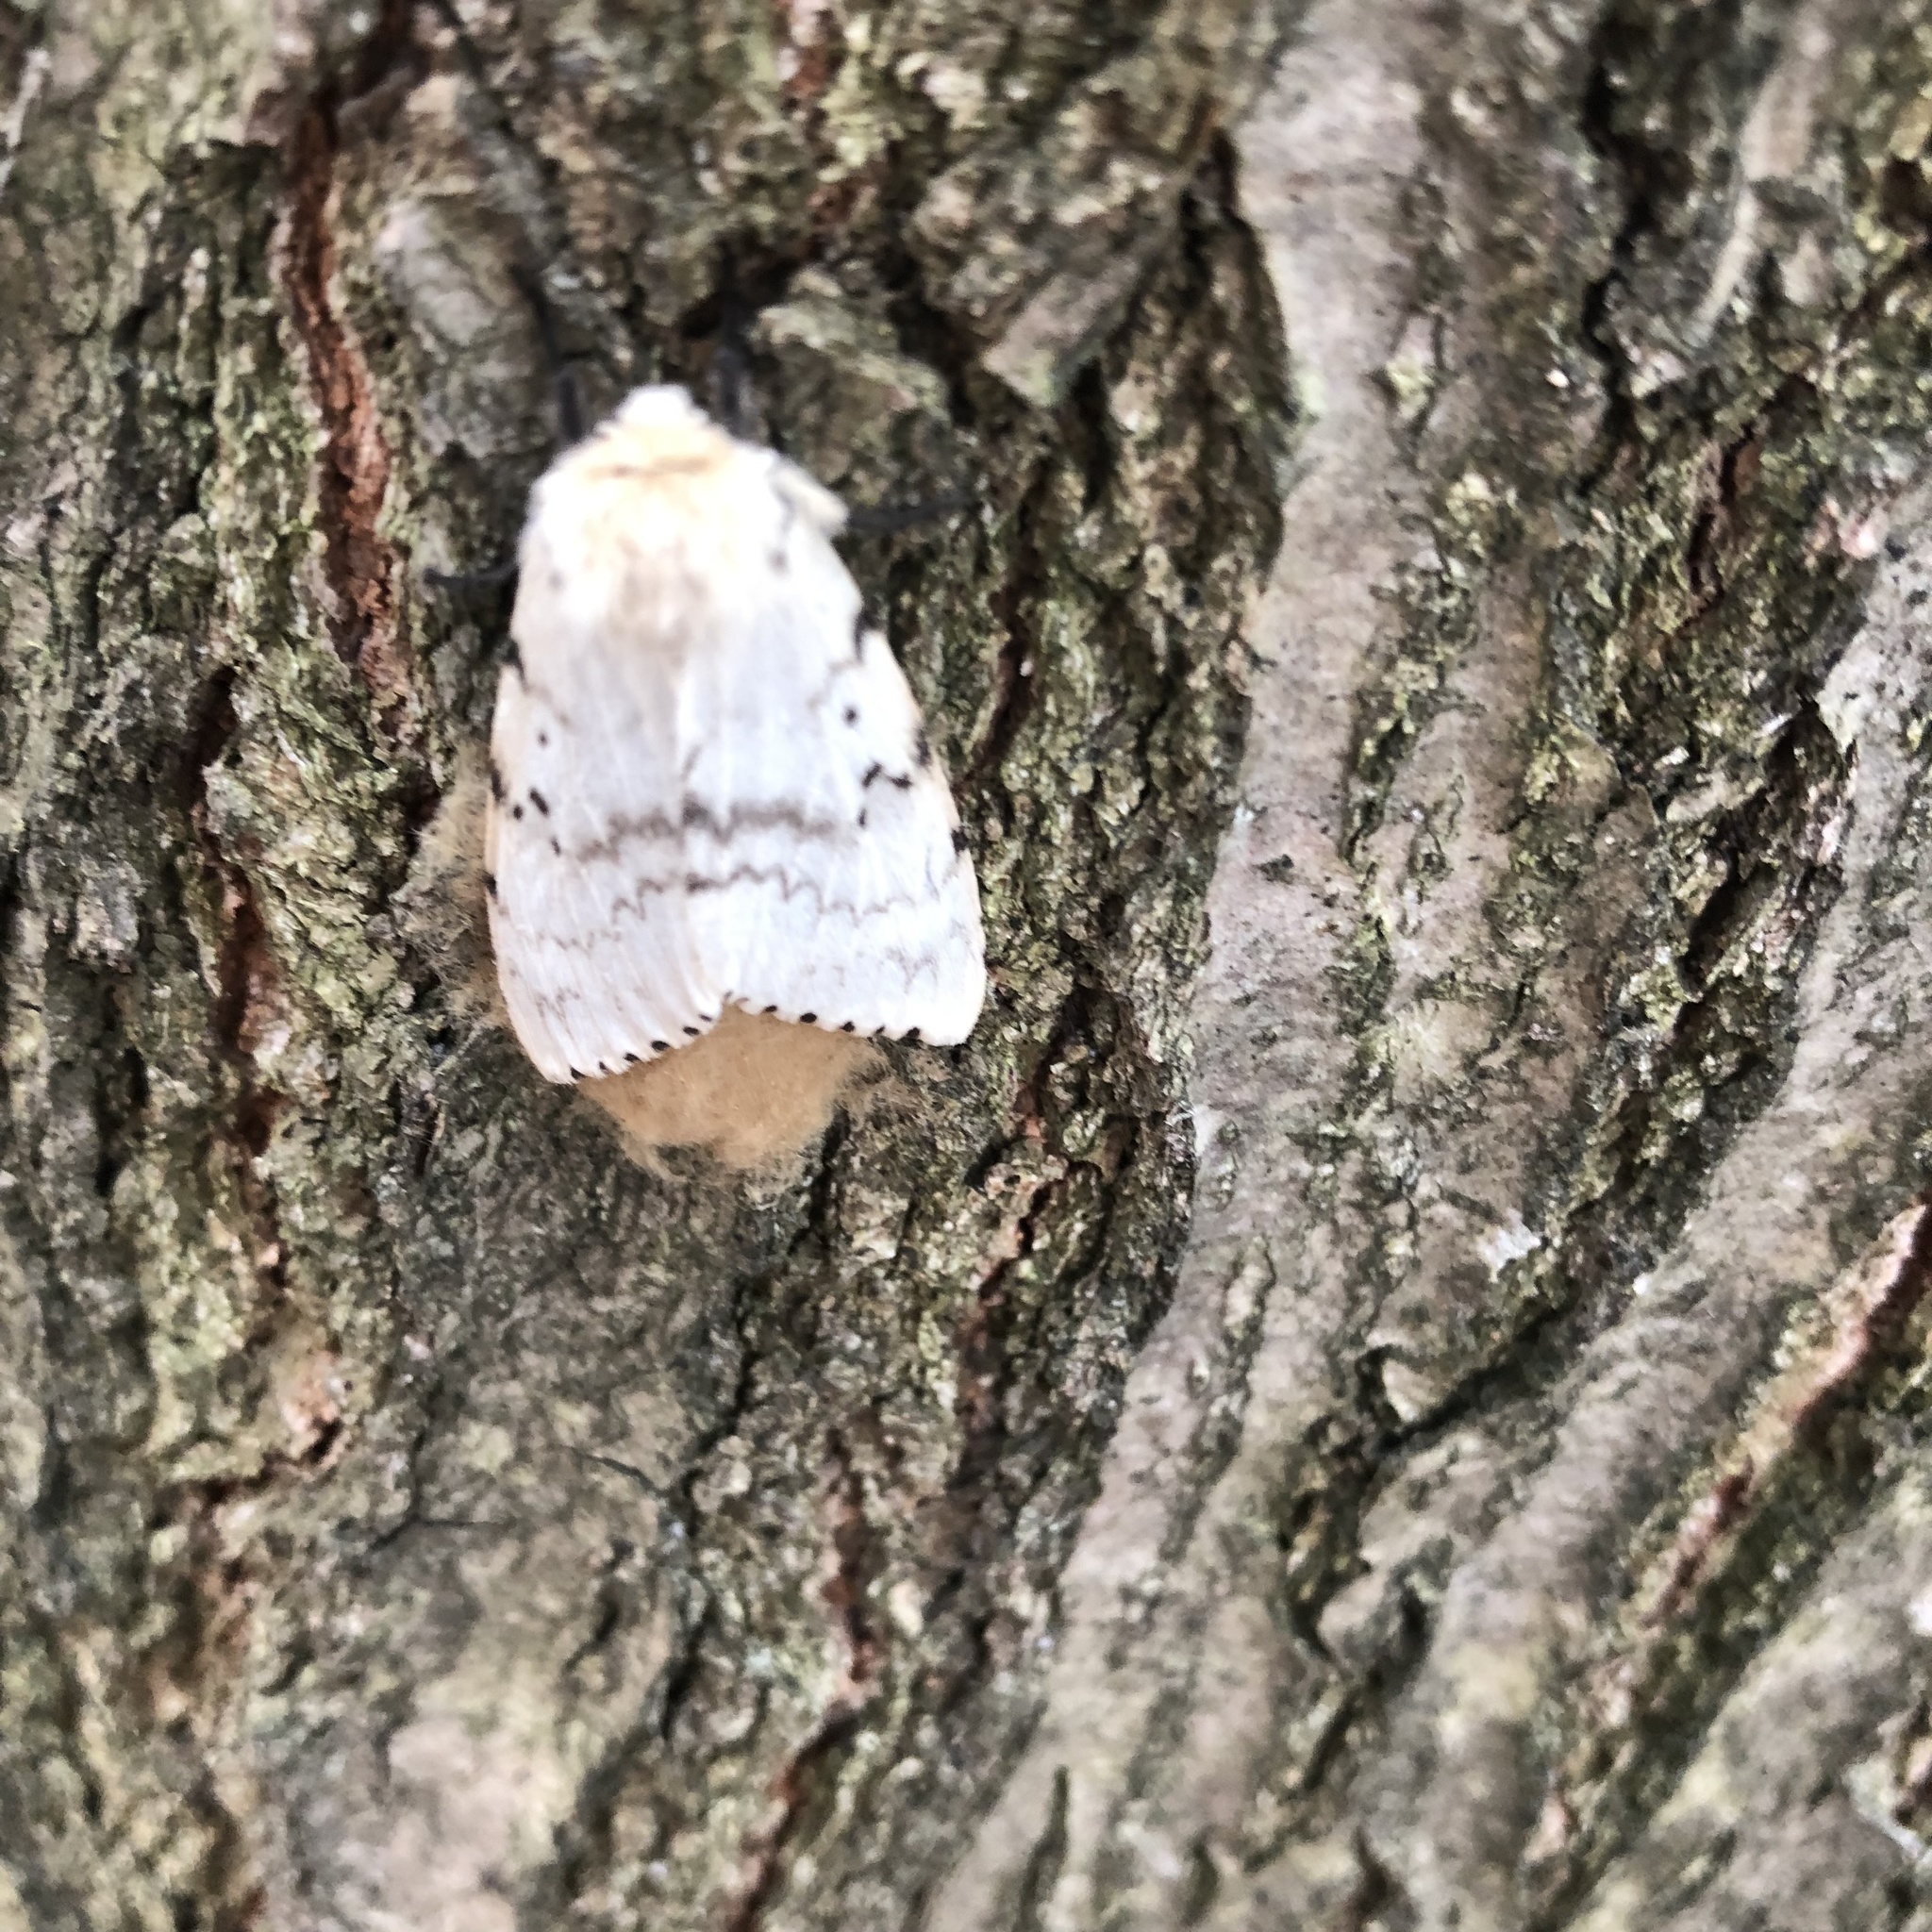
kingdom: Animalia
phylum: Arthropoda
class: Insecta
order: Lepidoptera
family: Erebidae
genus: Lymantria
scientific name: Lymantria dispar
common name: Gypsy moth
